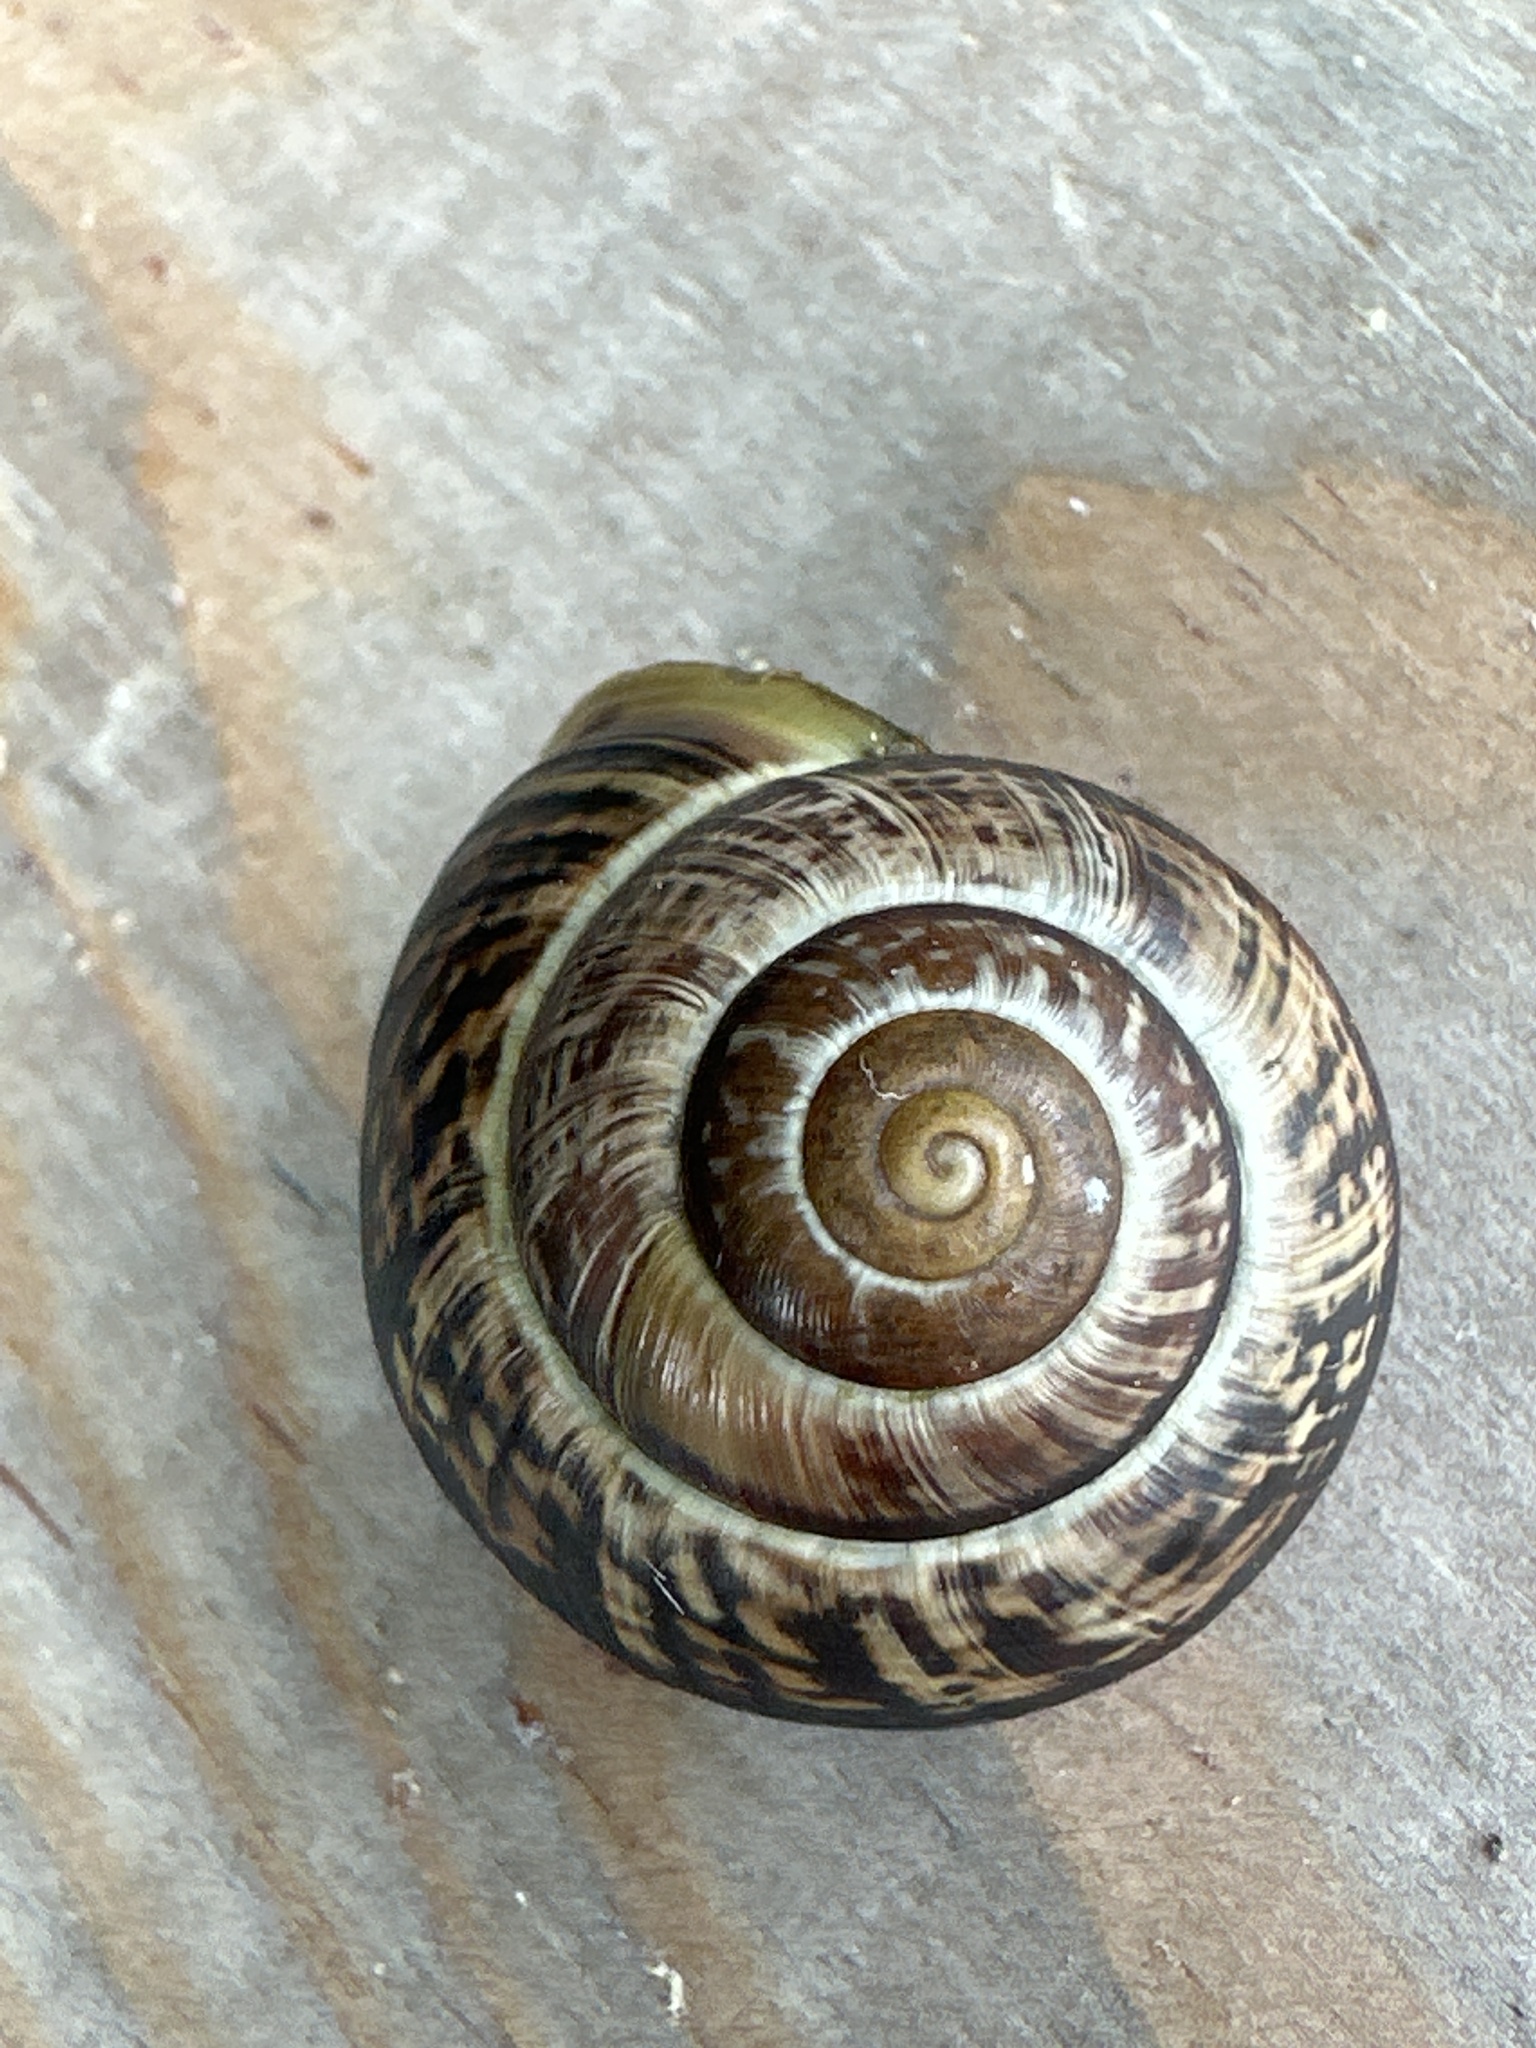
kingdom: Animalia
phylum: Mollusca
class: Gastropoda
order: Stylommatophora
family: Helicidae
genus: Arianta
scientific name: Arianta arbustorum
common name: Copse snail
